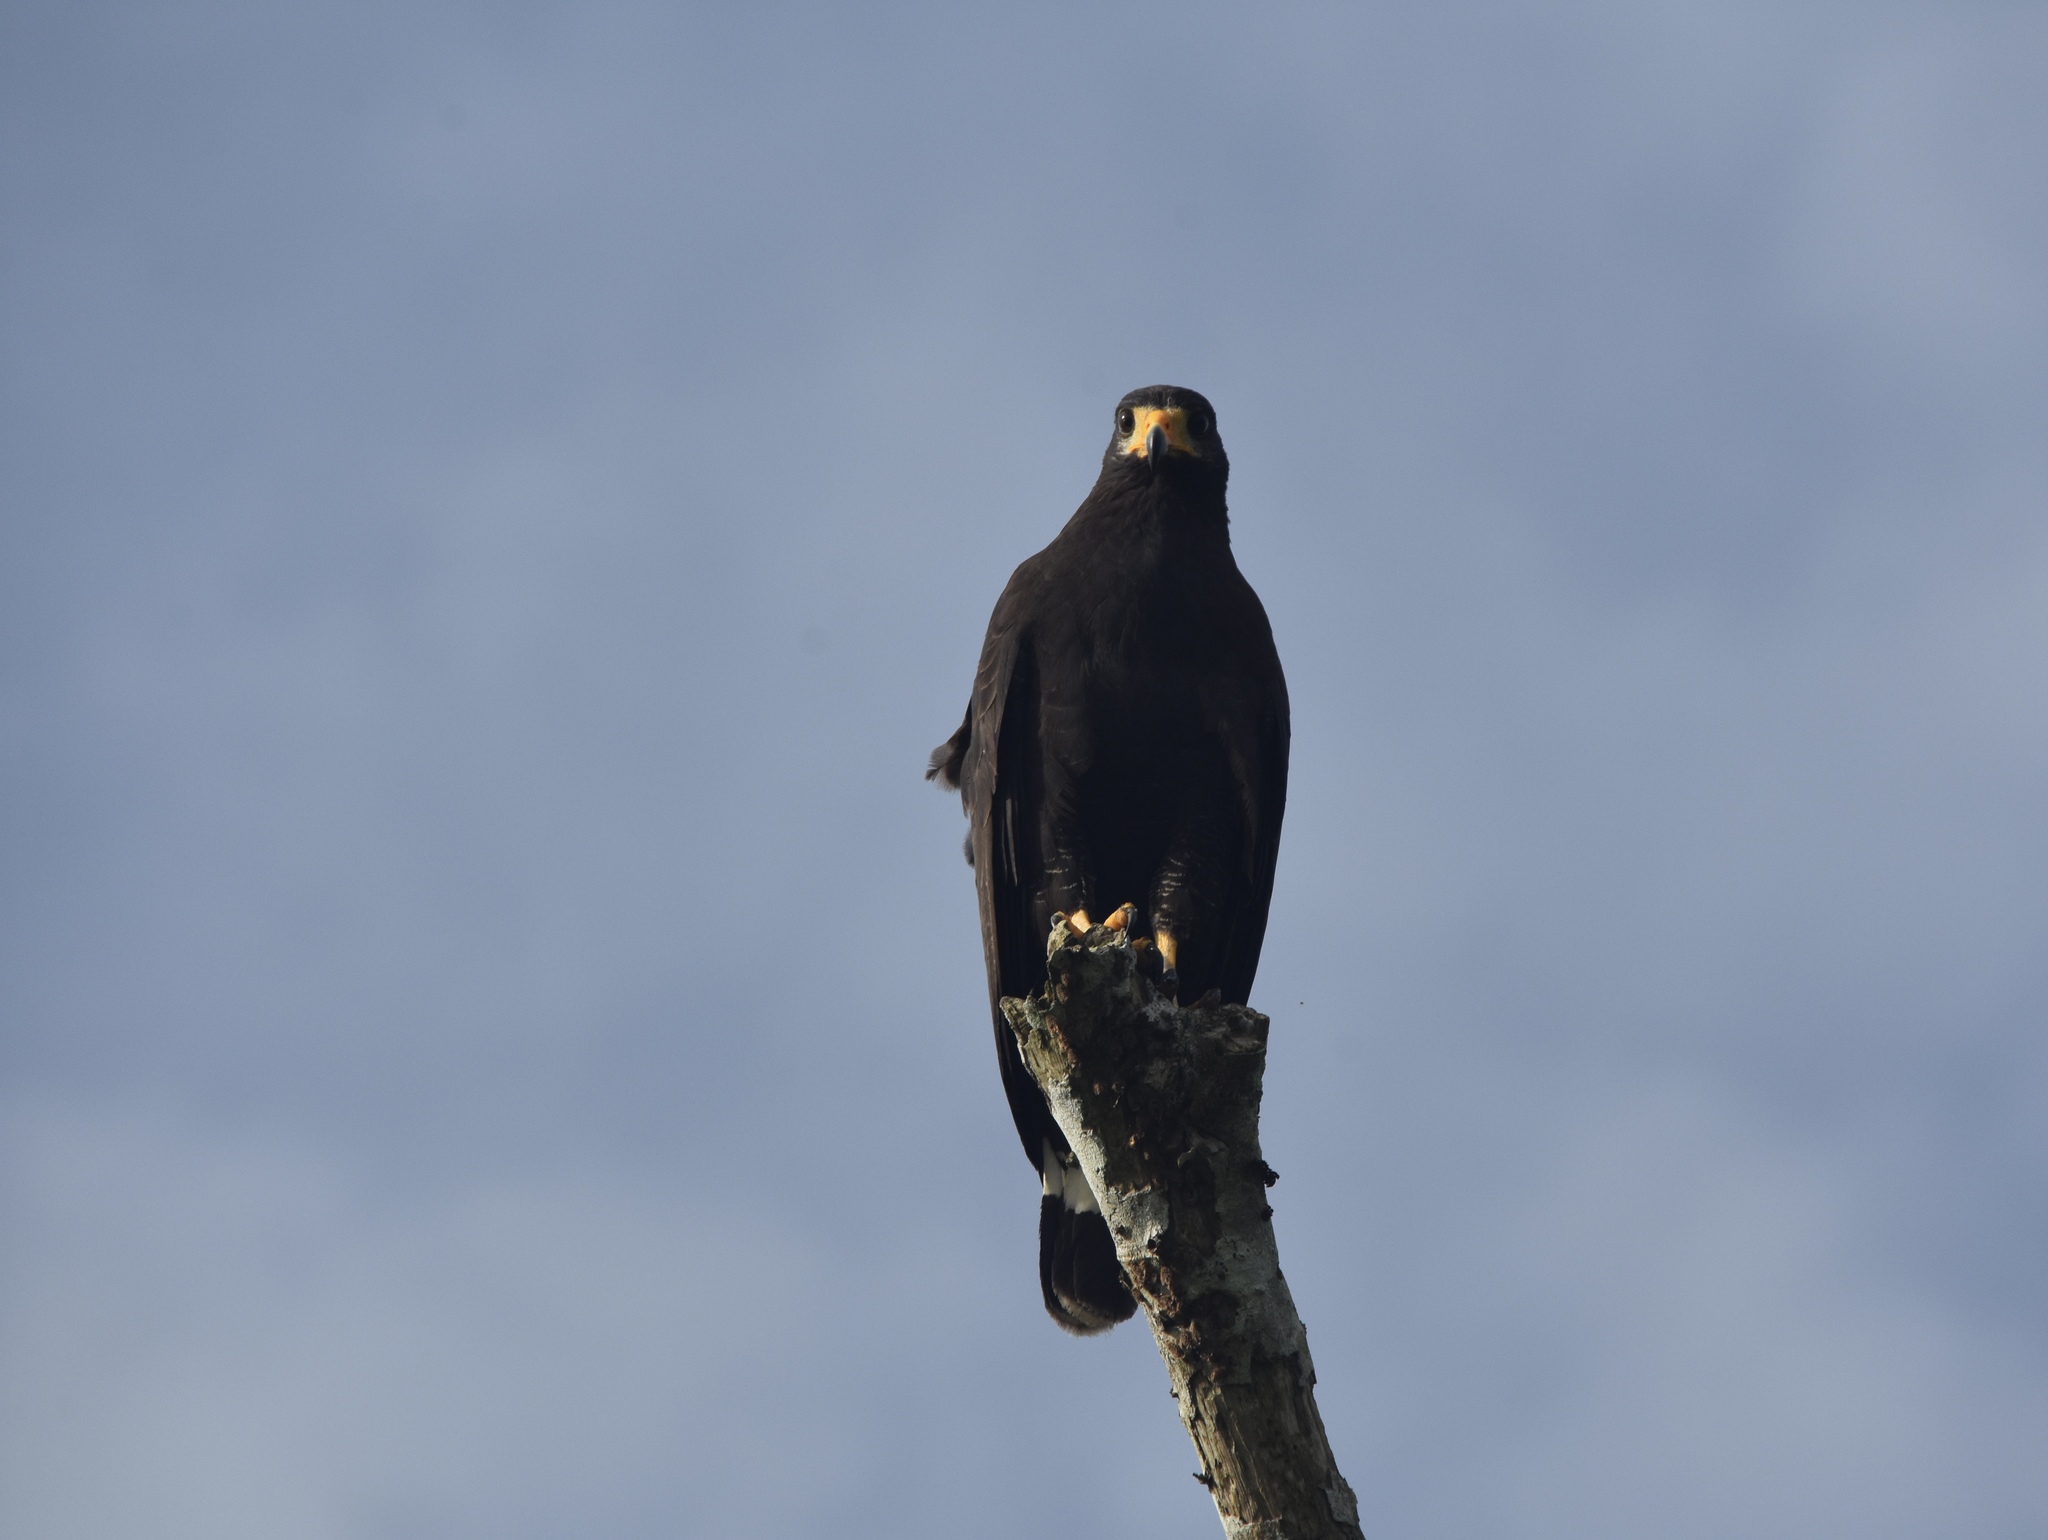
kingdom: Animalia
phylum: Chordata
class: Aves
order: Accipitriformes
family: Accipitridae
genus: Buteogallus
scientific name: Buteogallus urubitinga
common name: Great black hawk
